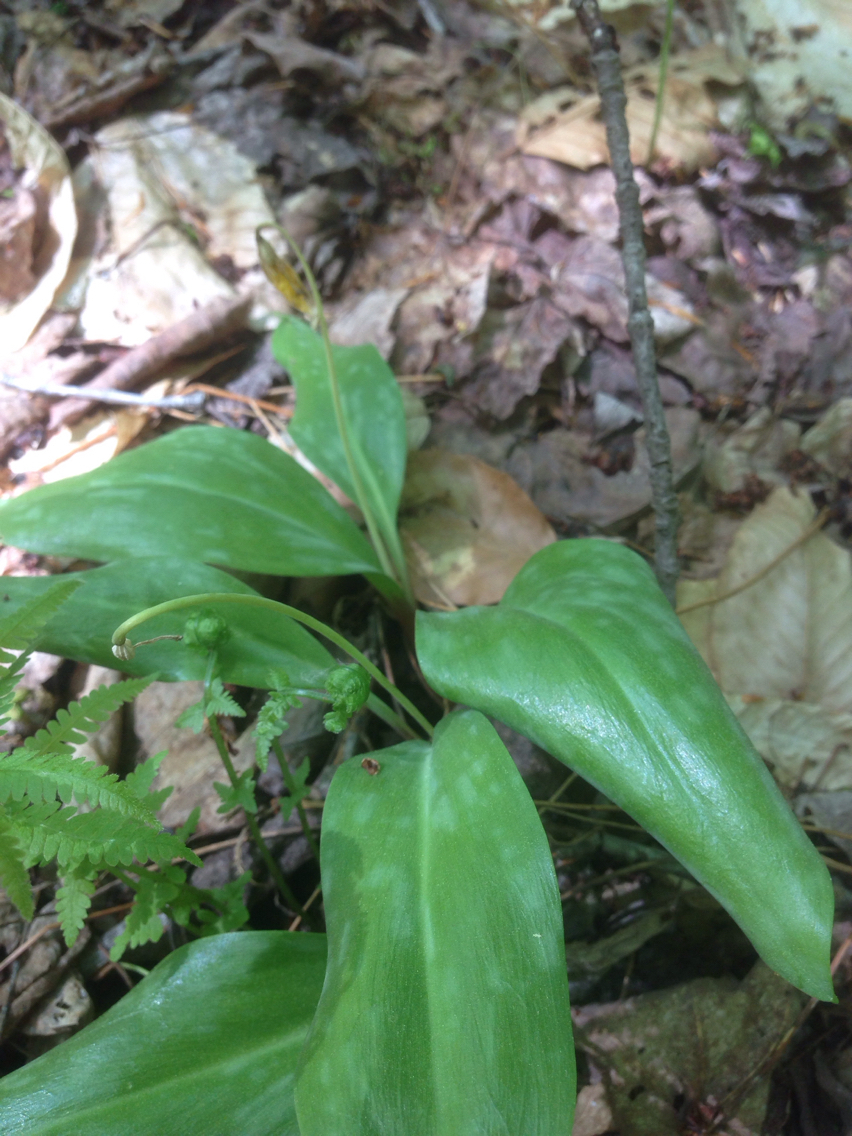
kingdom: Plantae
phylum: Tracheophyta
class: Liliopsida
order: Liliales
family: Liliaceae
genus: Erythronium
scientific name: Erythronium americanum
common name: Yellow adder's-tongue
